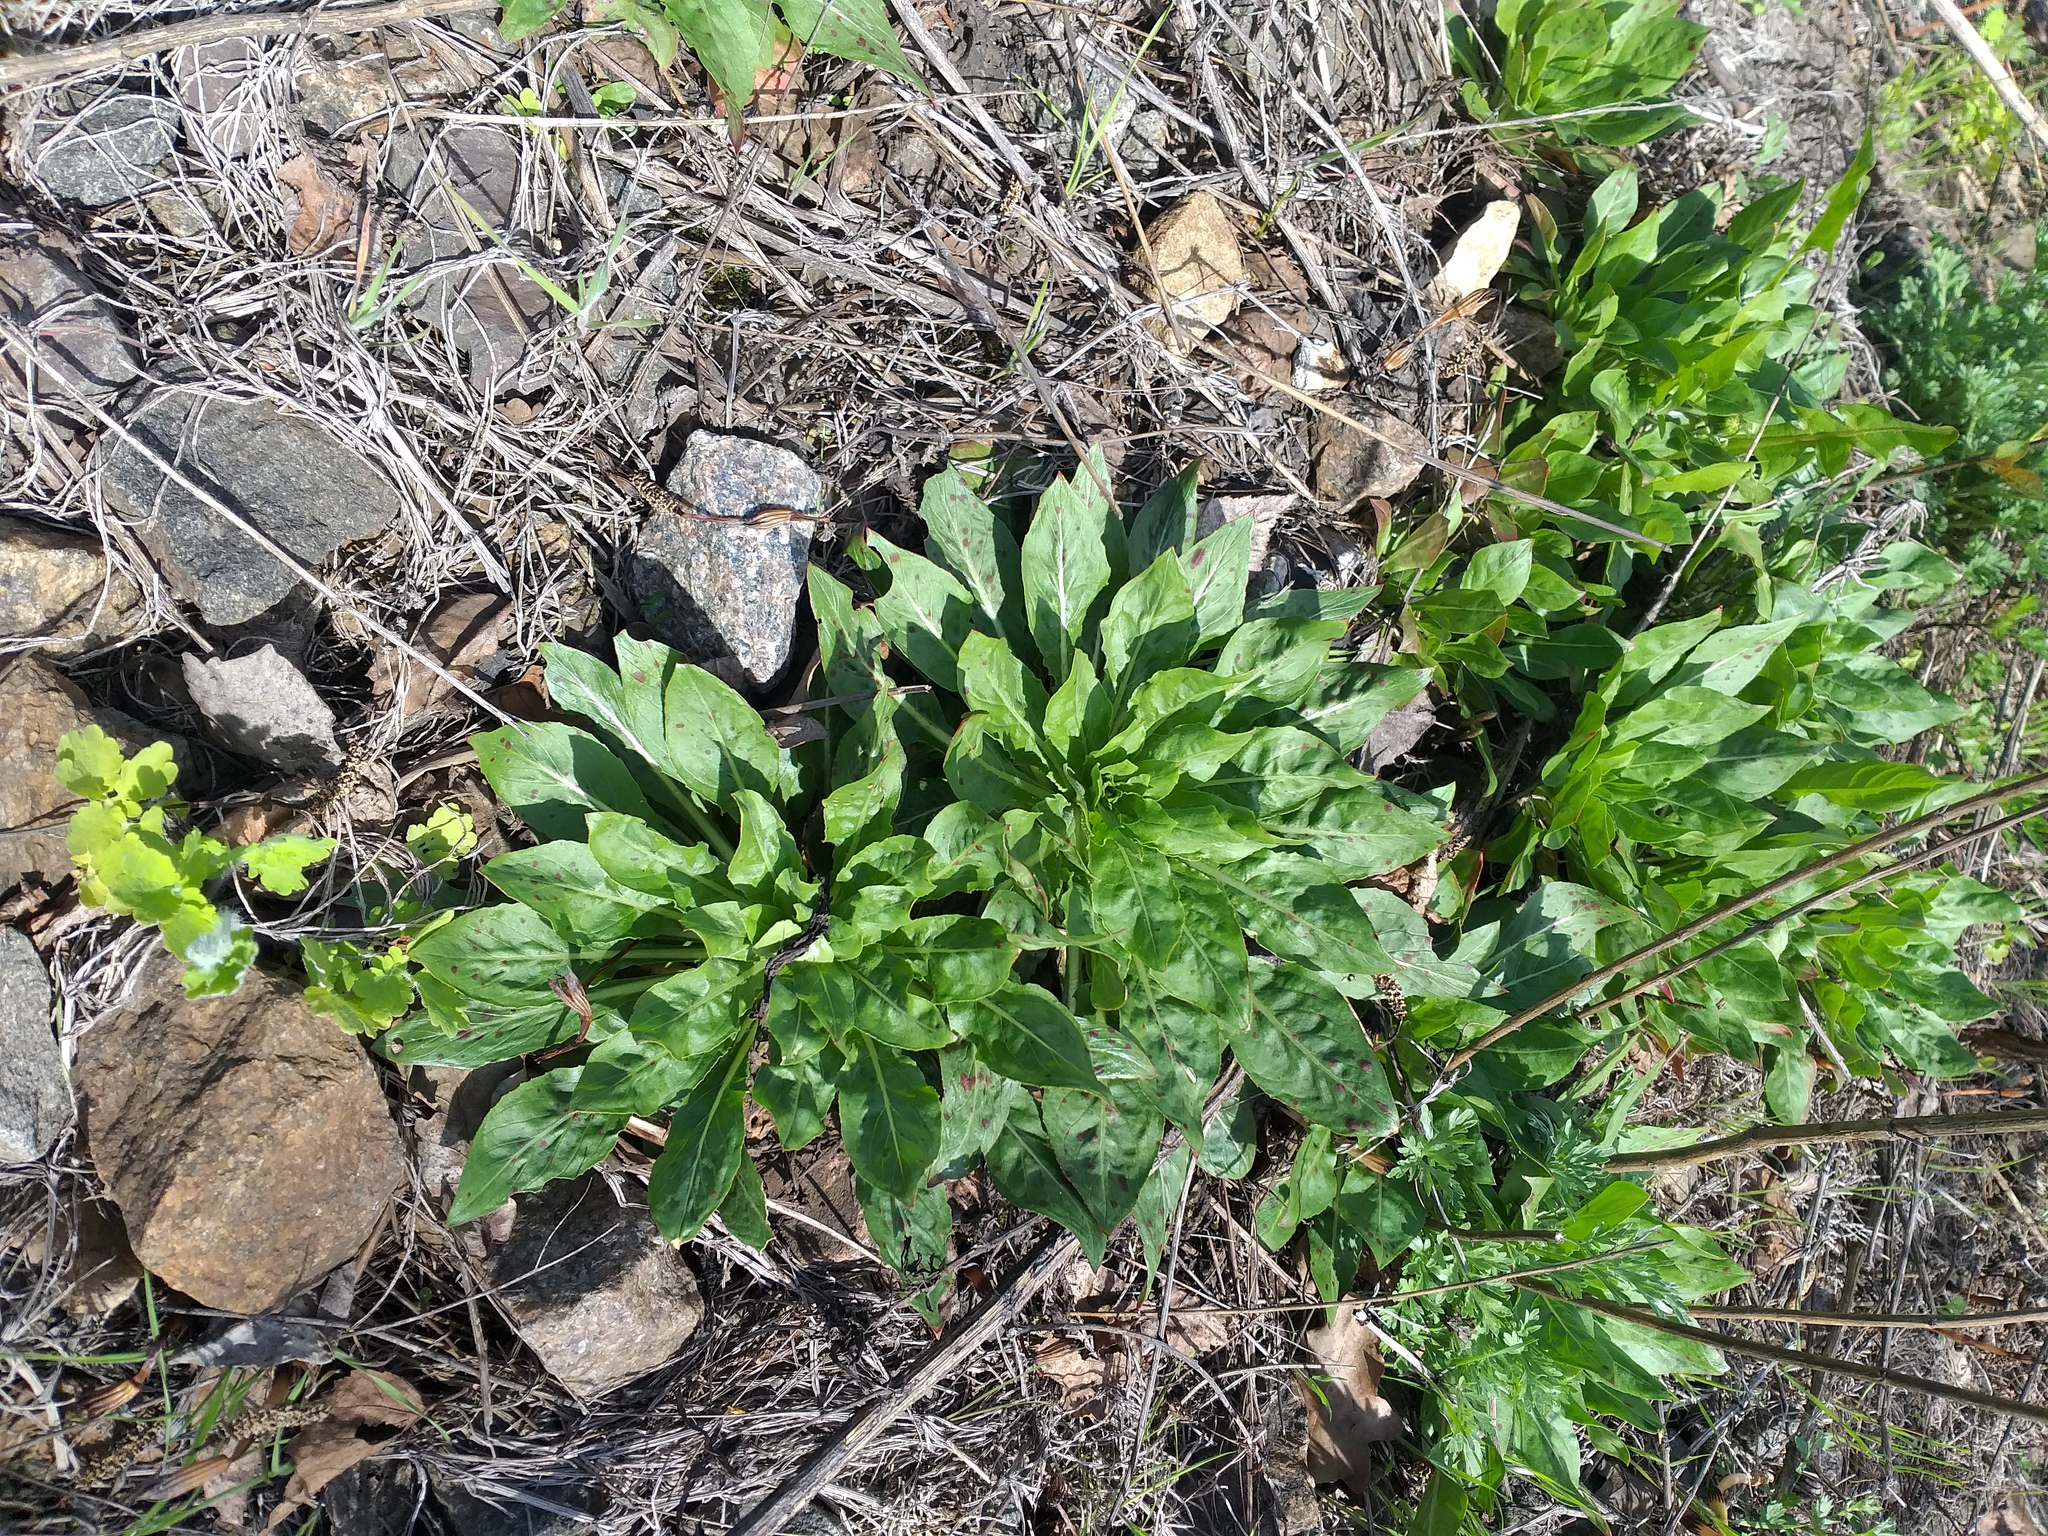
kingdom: Plantae
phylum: Tracheophyta
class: Magnoliopsida
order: Myrtales
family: Onagraceae
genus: Oenothera
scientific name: Oenothera
